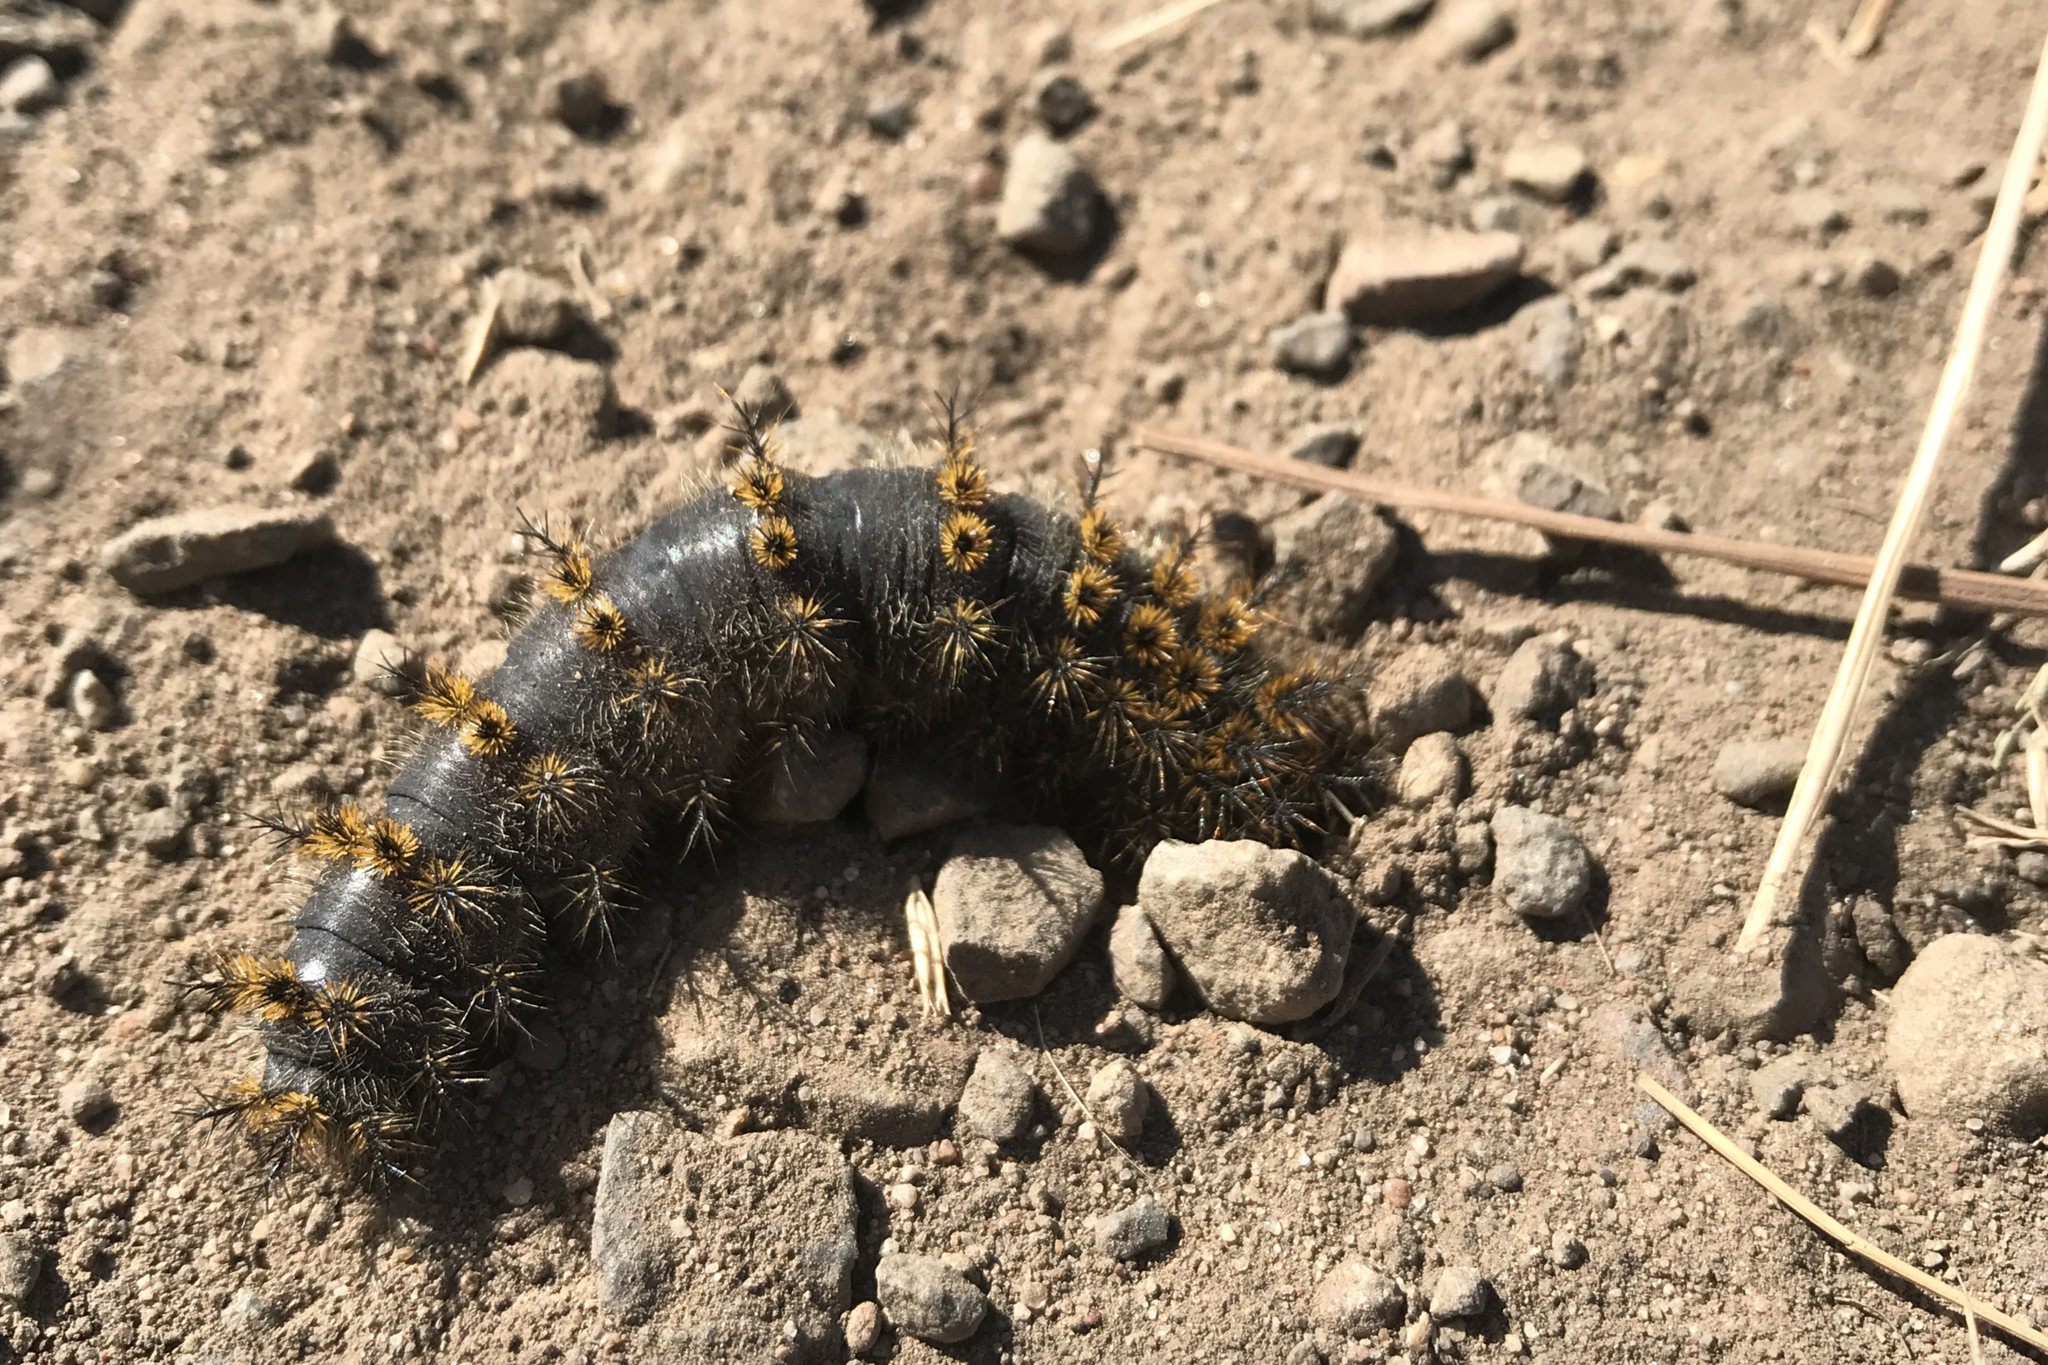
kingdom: Animalia
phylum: Arthropoda
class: Insecta
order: Lepidoptera
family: Saturniidae
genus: Hemileuca
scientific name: Hemileuca eglanterina
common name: Western sheepmoth
